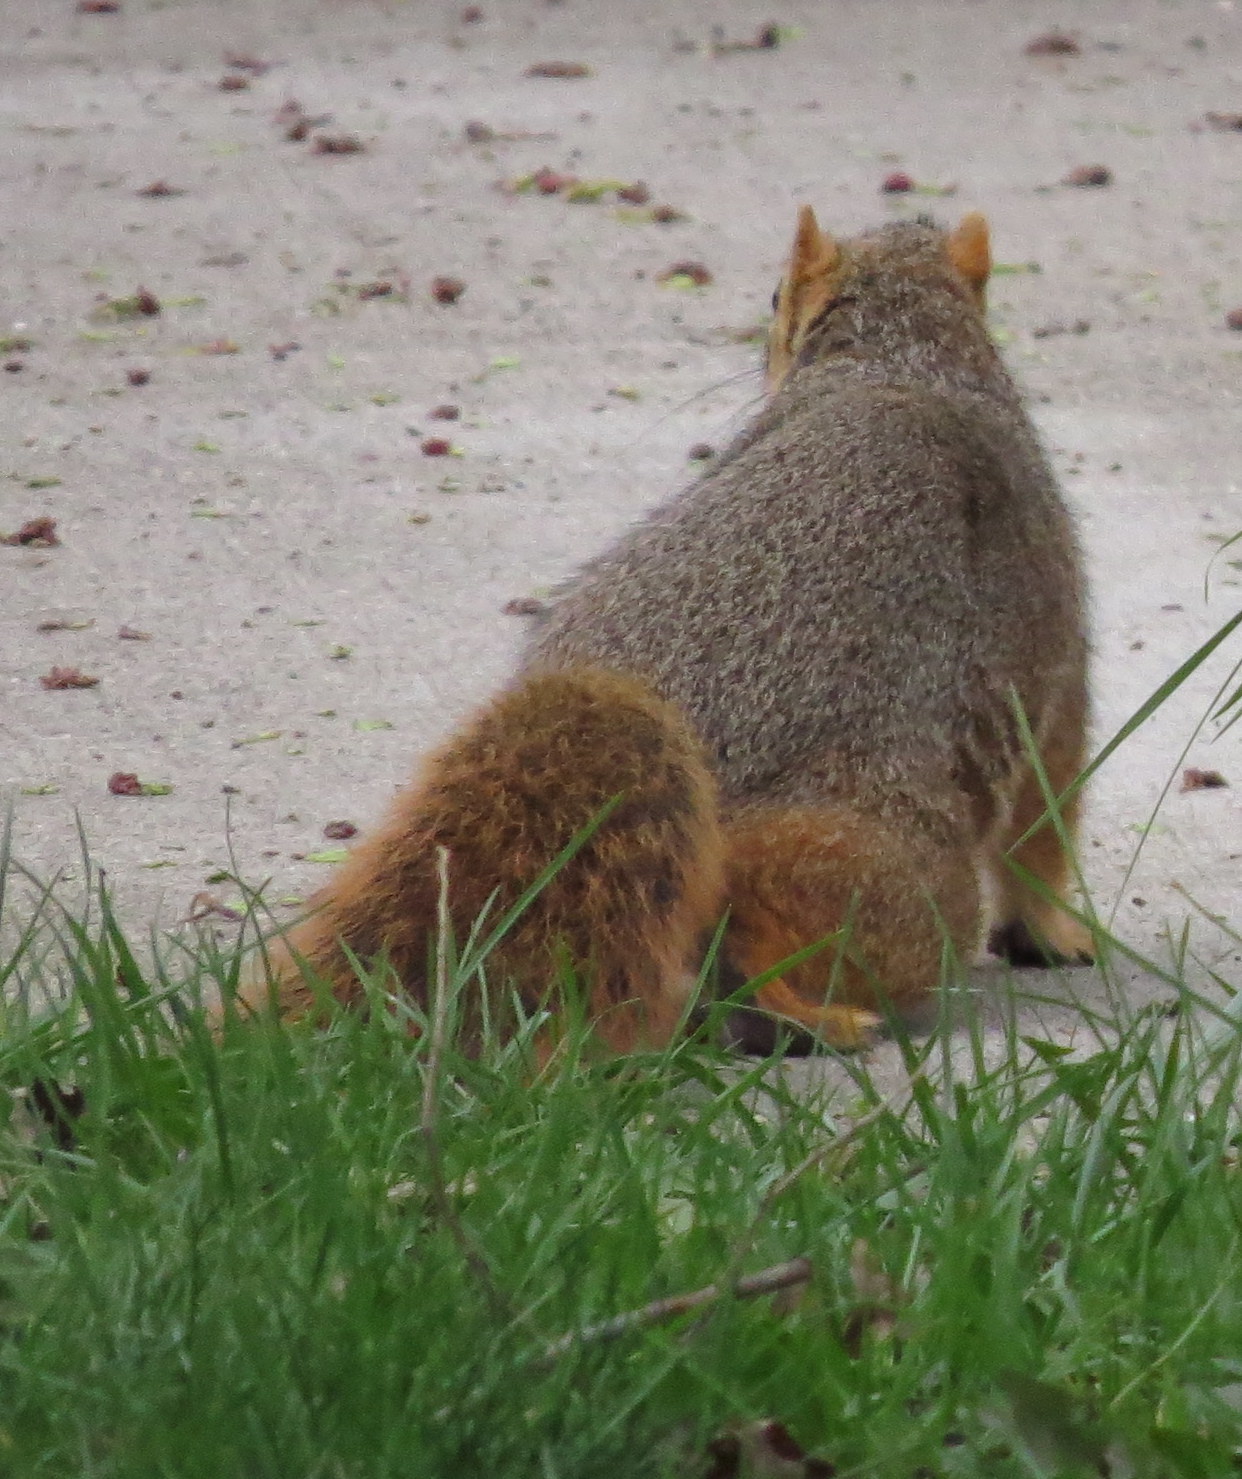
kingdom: Animalia
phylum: Chordata
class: Mammalia
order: Rodentia
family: Sciuridae
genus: Sciurus
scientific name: Sciurus niger
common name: Fox squirrel
